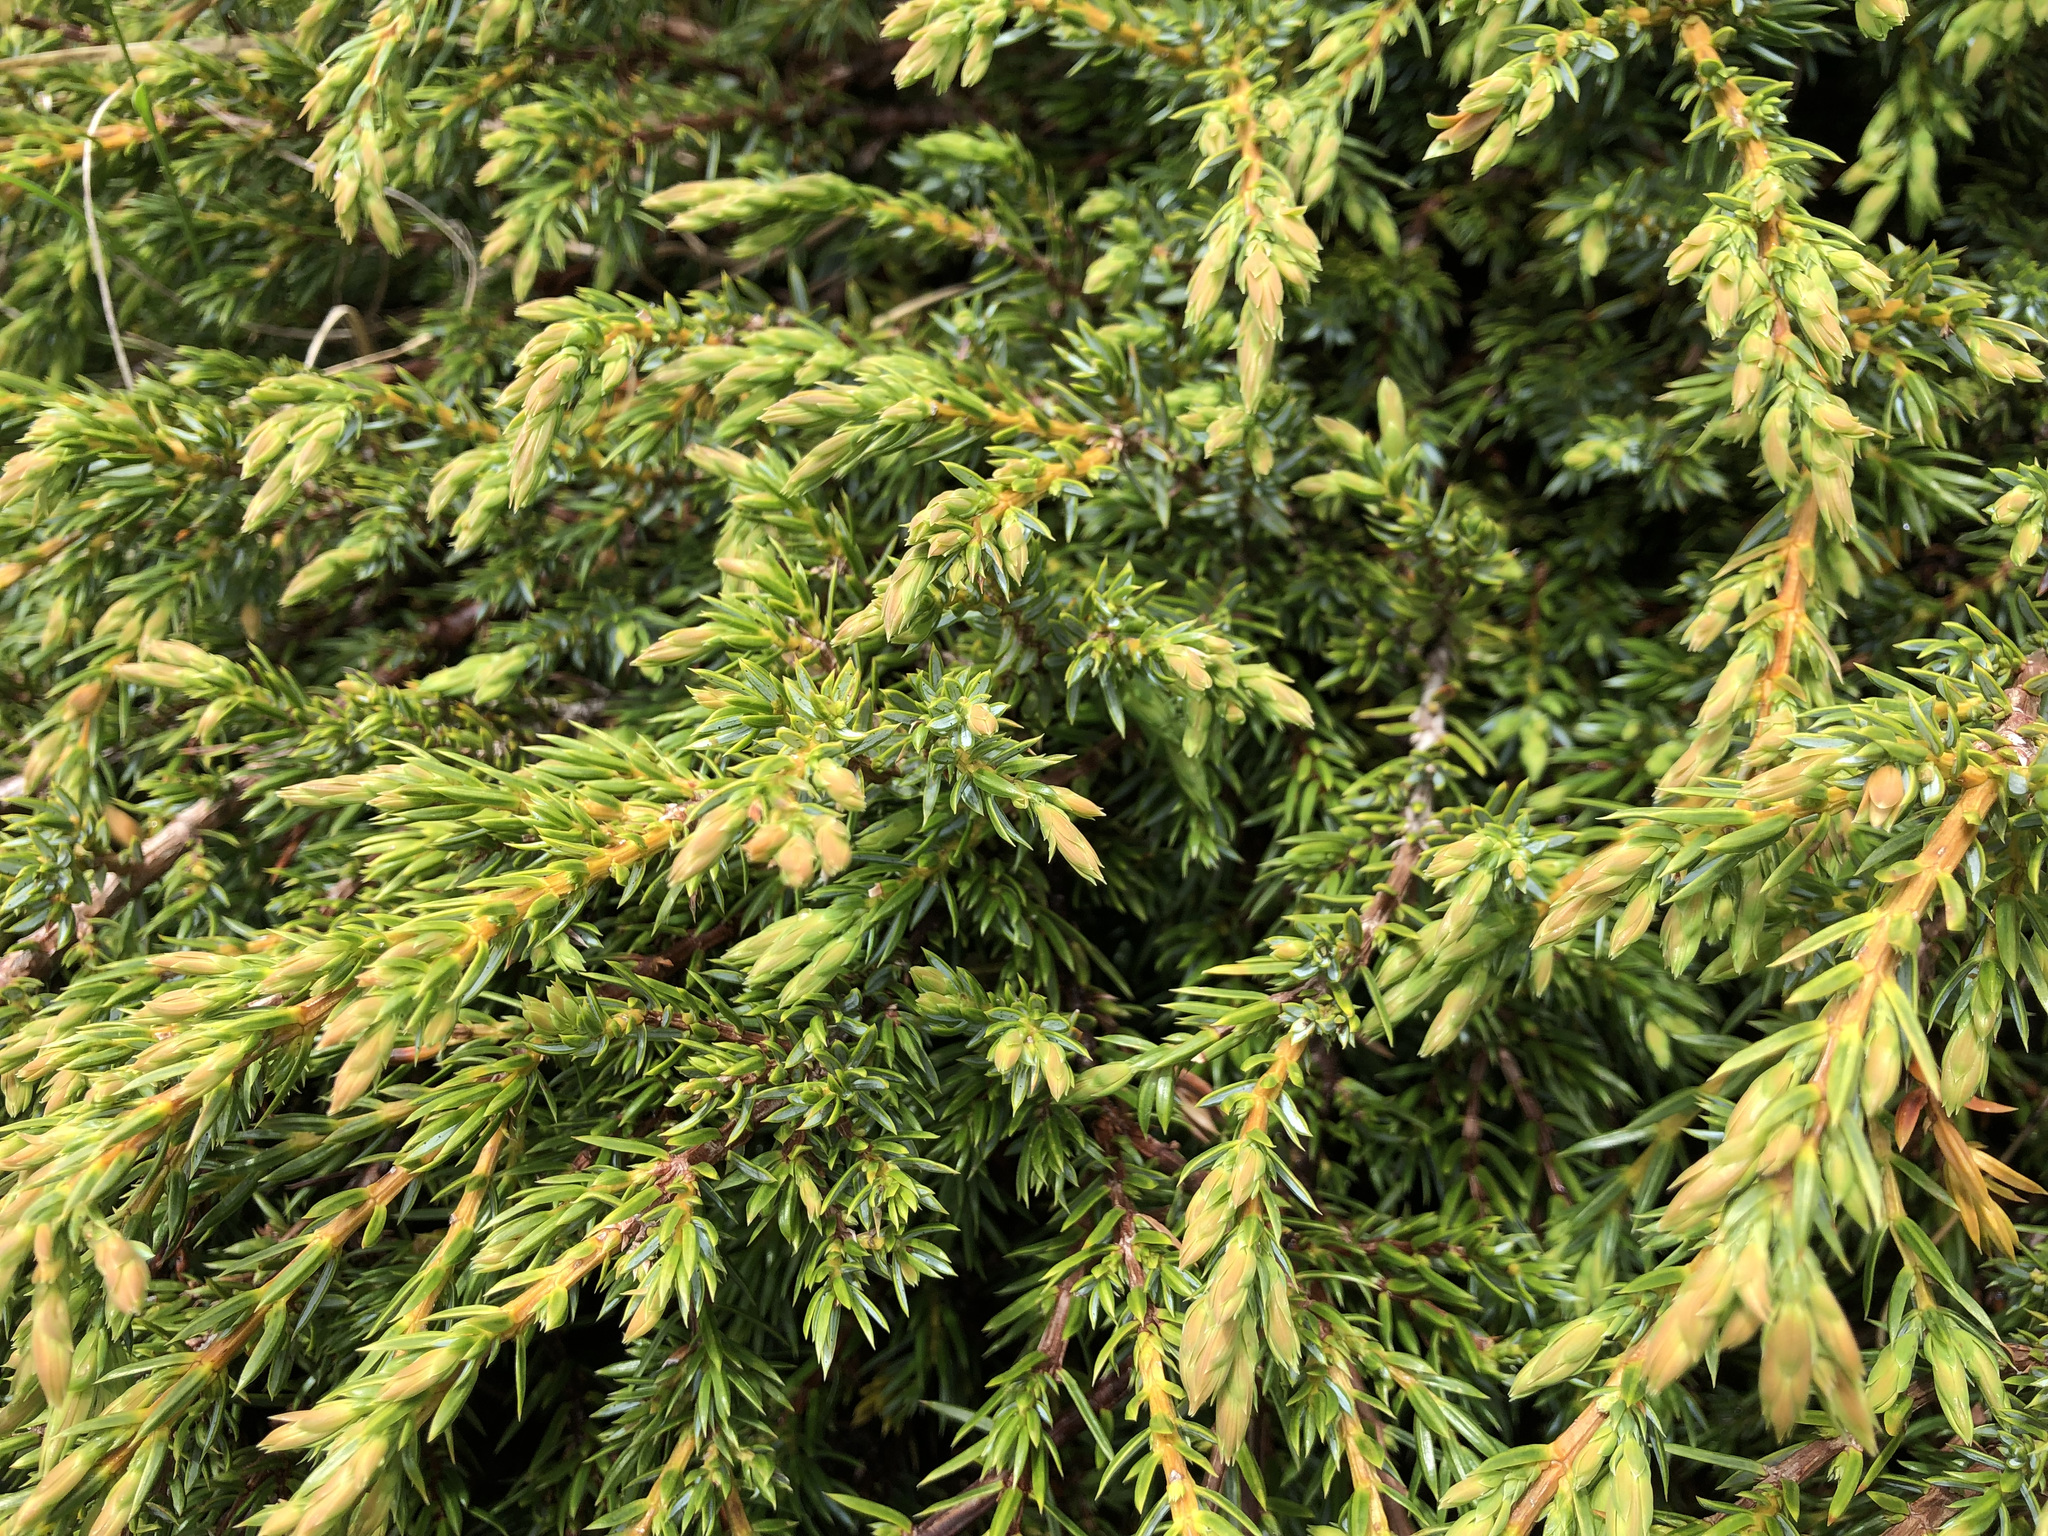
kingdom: Plantae
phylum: Tracheophyta
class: Pinopsida
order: Pinales
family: Cupressaceae
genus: Juniperus
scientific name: Juniperus communis
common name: Common juniper
